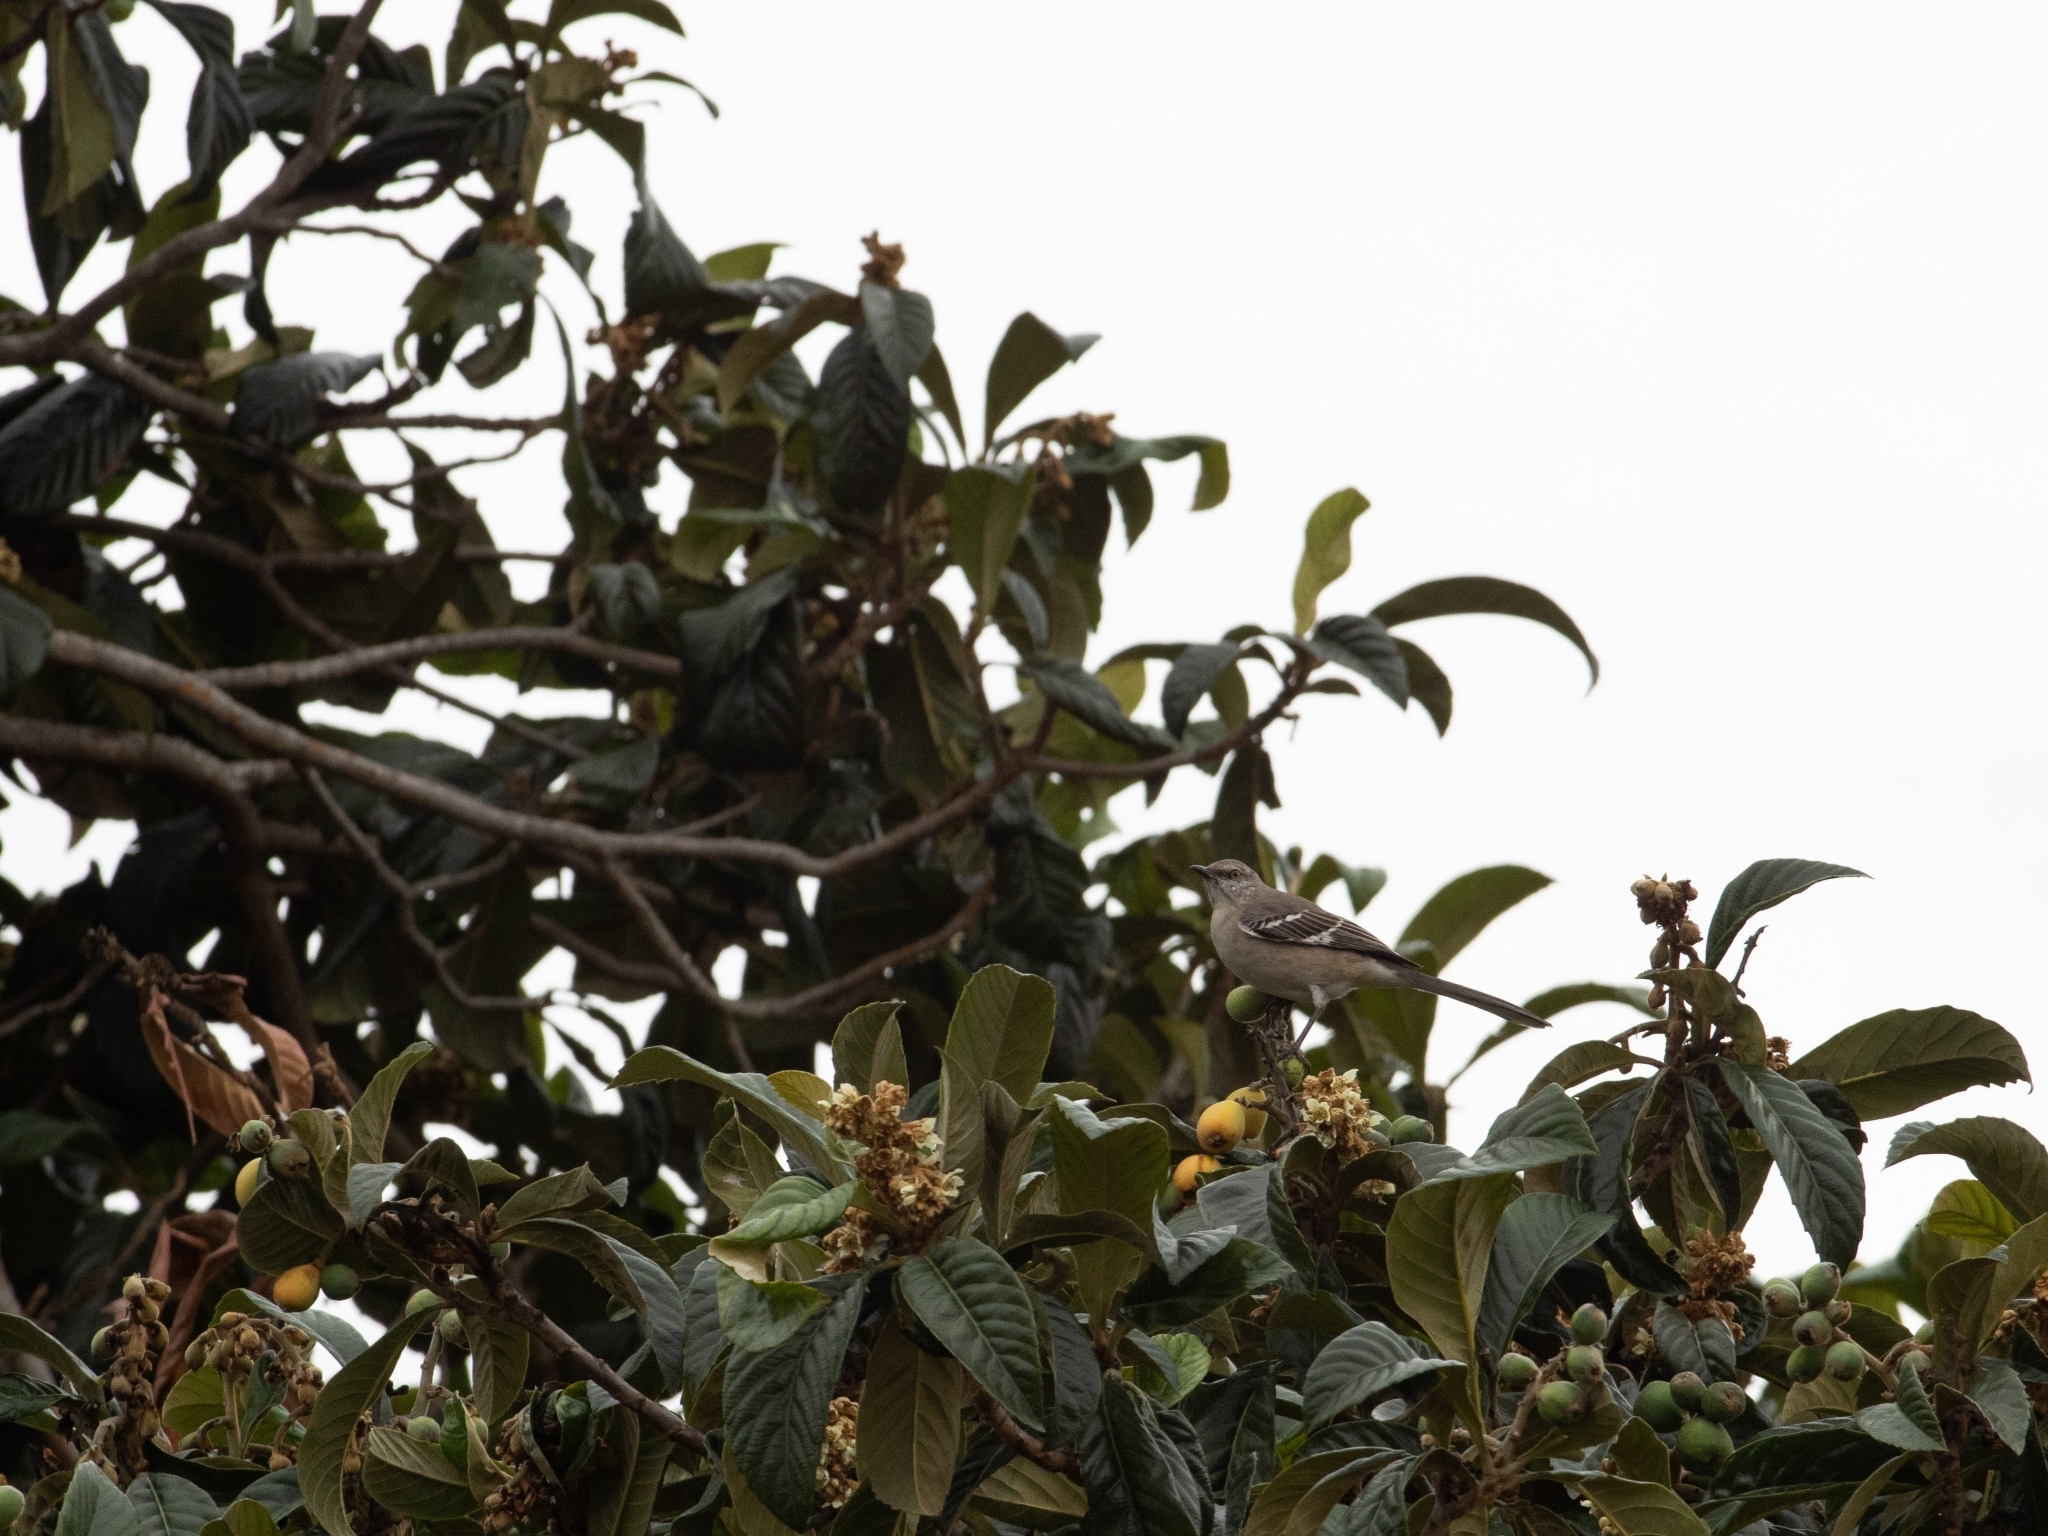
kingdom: Animalia
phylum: Chordata
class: Aves
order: Passeriformes
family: Mimidae
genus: Mimus
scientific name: Mimus polyglottos
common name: Northern mockingbird
